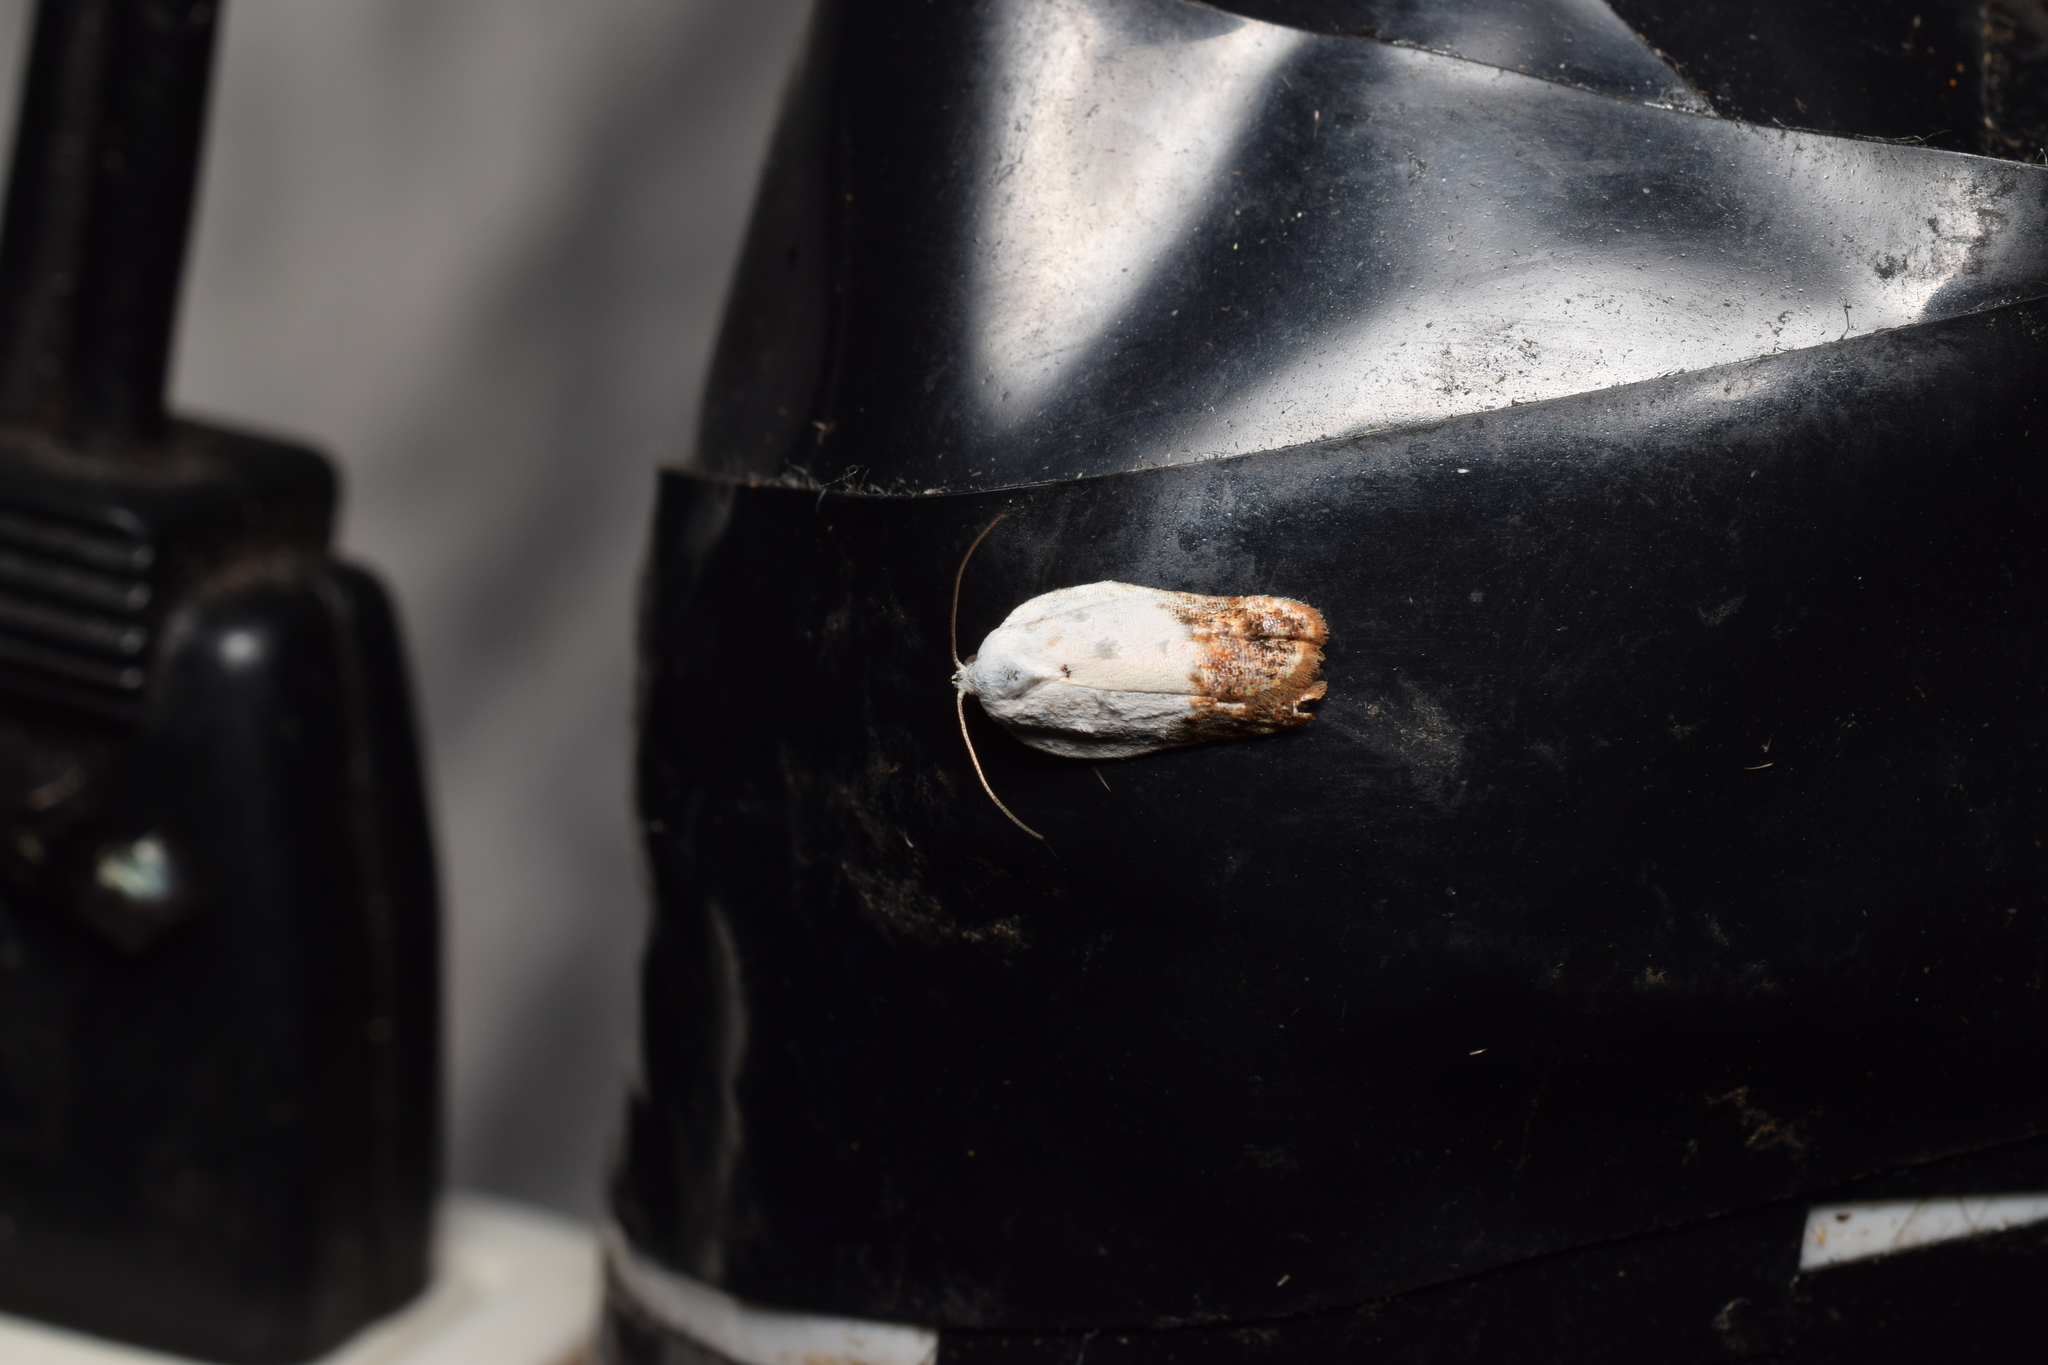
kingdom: Animalia
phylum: Arthropoda
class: Insecta
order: Lepidoptera
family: Tortricidae
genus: Acleris
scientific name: Acleris japonica
